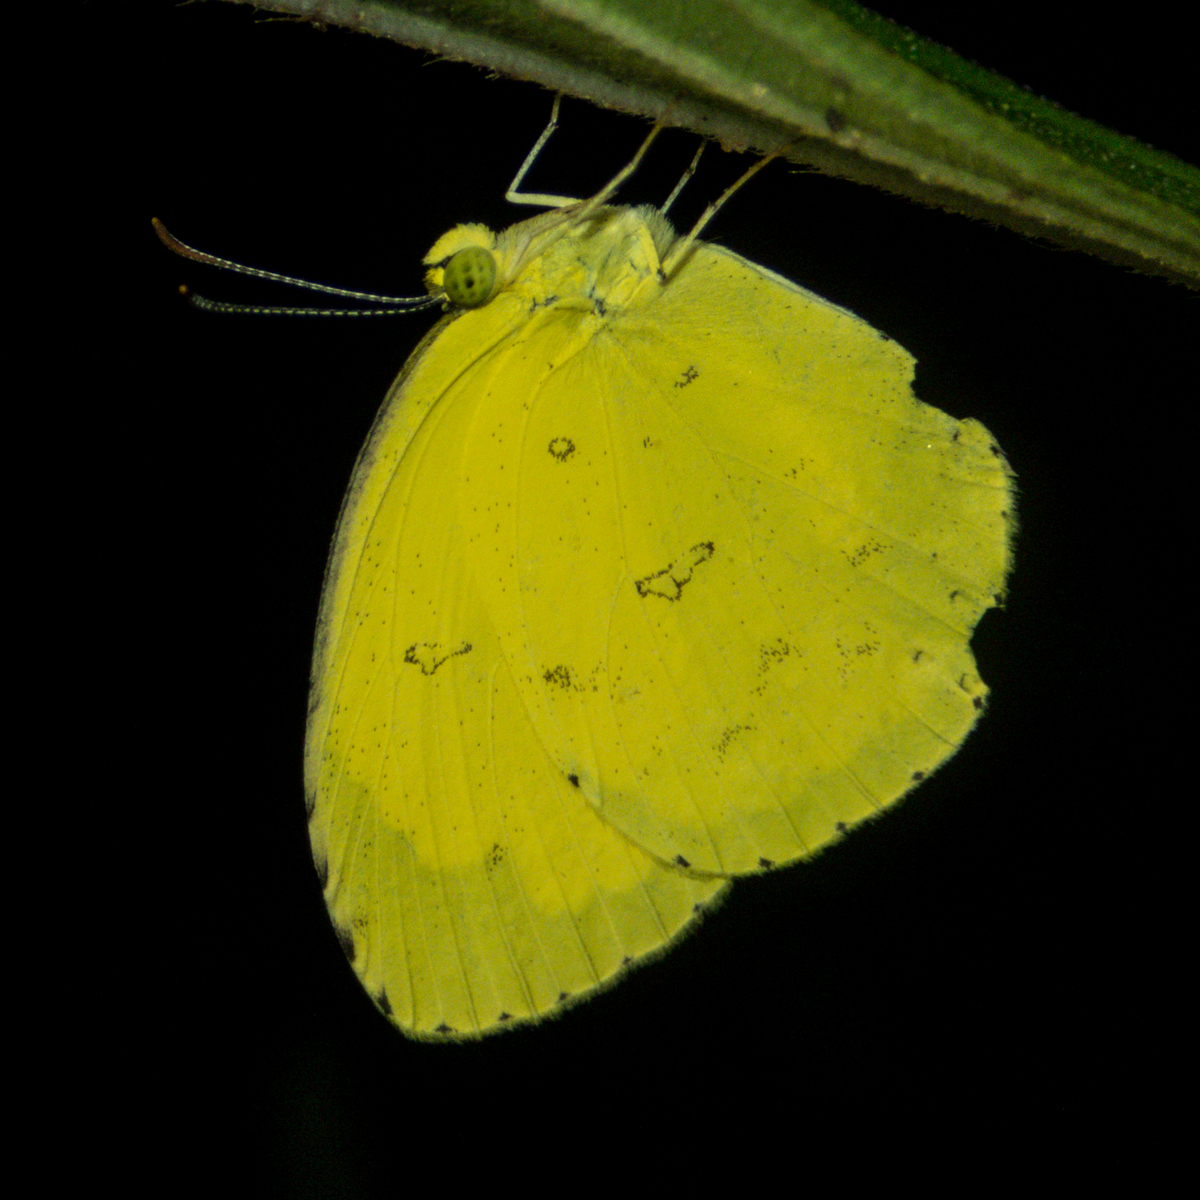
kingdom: Animalia
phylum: Arthropoda
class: Insecta
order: Lepidoptera
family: Pieridae
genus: Eurema
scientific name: Eurema hecabe
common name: Pale grass yellow
